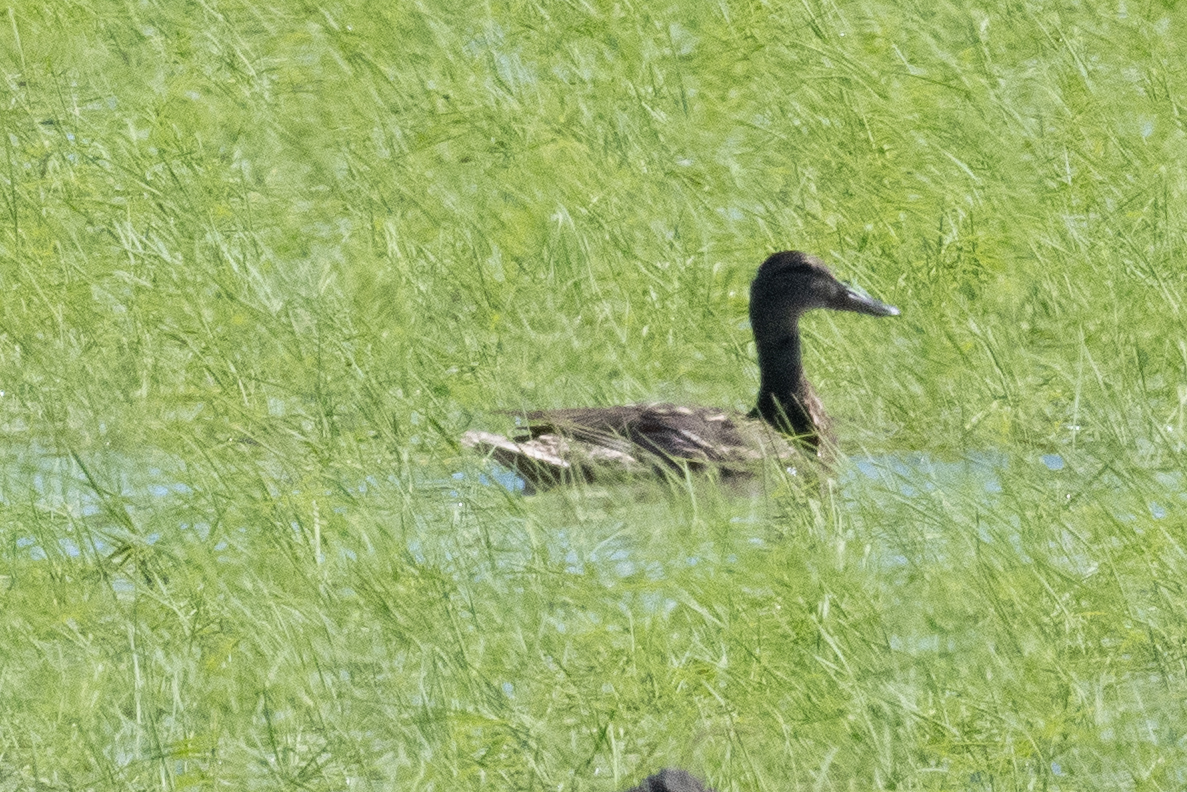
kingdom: Animalia
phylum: Chordata
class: Aves
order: Anseriformes
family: Anatidae
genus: Anas
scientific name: Anas platyrhynchos
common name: Mallard
